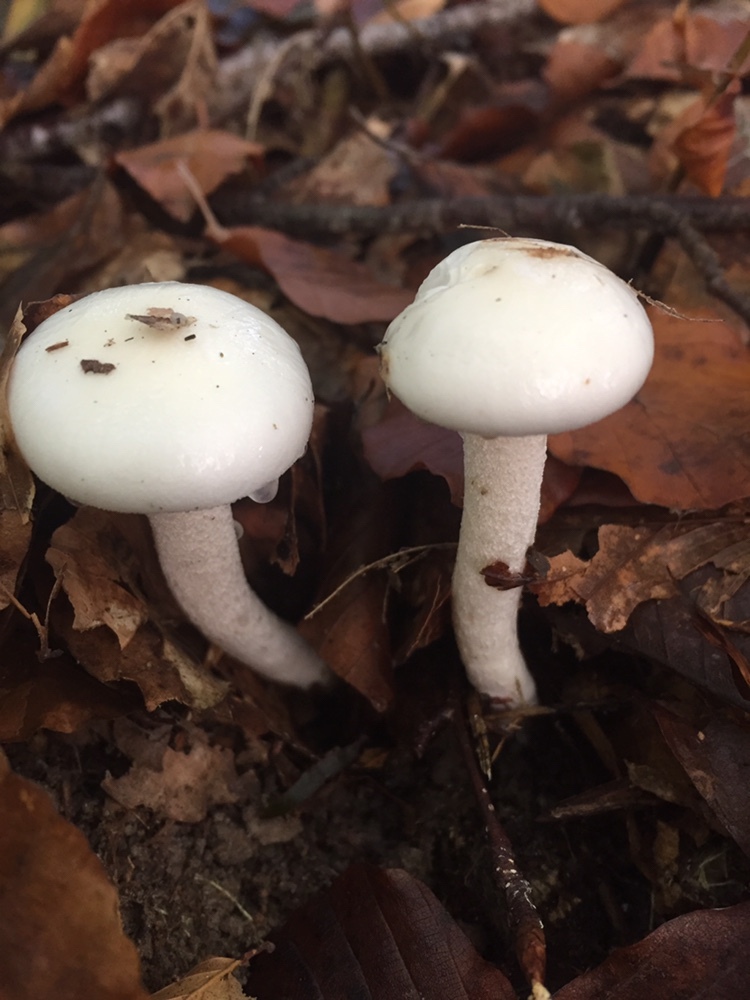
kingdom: Fungi
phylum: Basidiomycota
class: Agaricomycetes
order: Agaricales
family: Hygrophoraceae
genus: Hygrophorus
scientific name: Hygrophorus eburneus
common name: Ivory wax-cap
